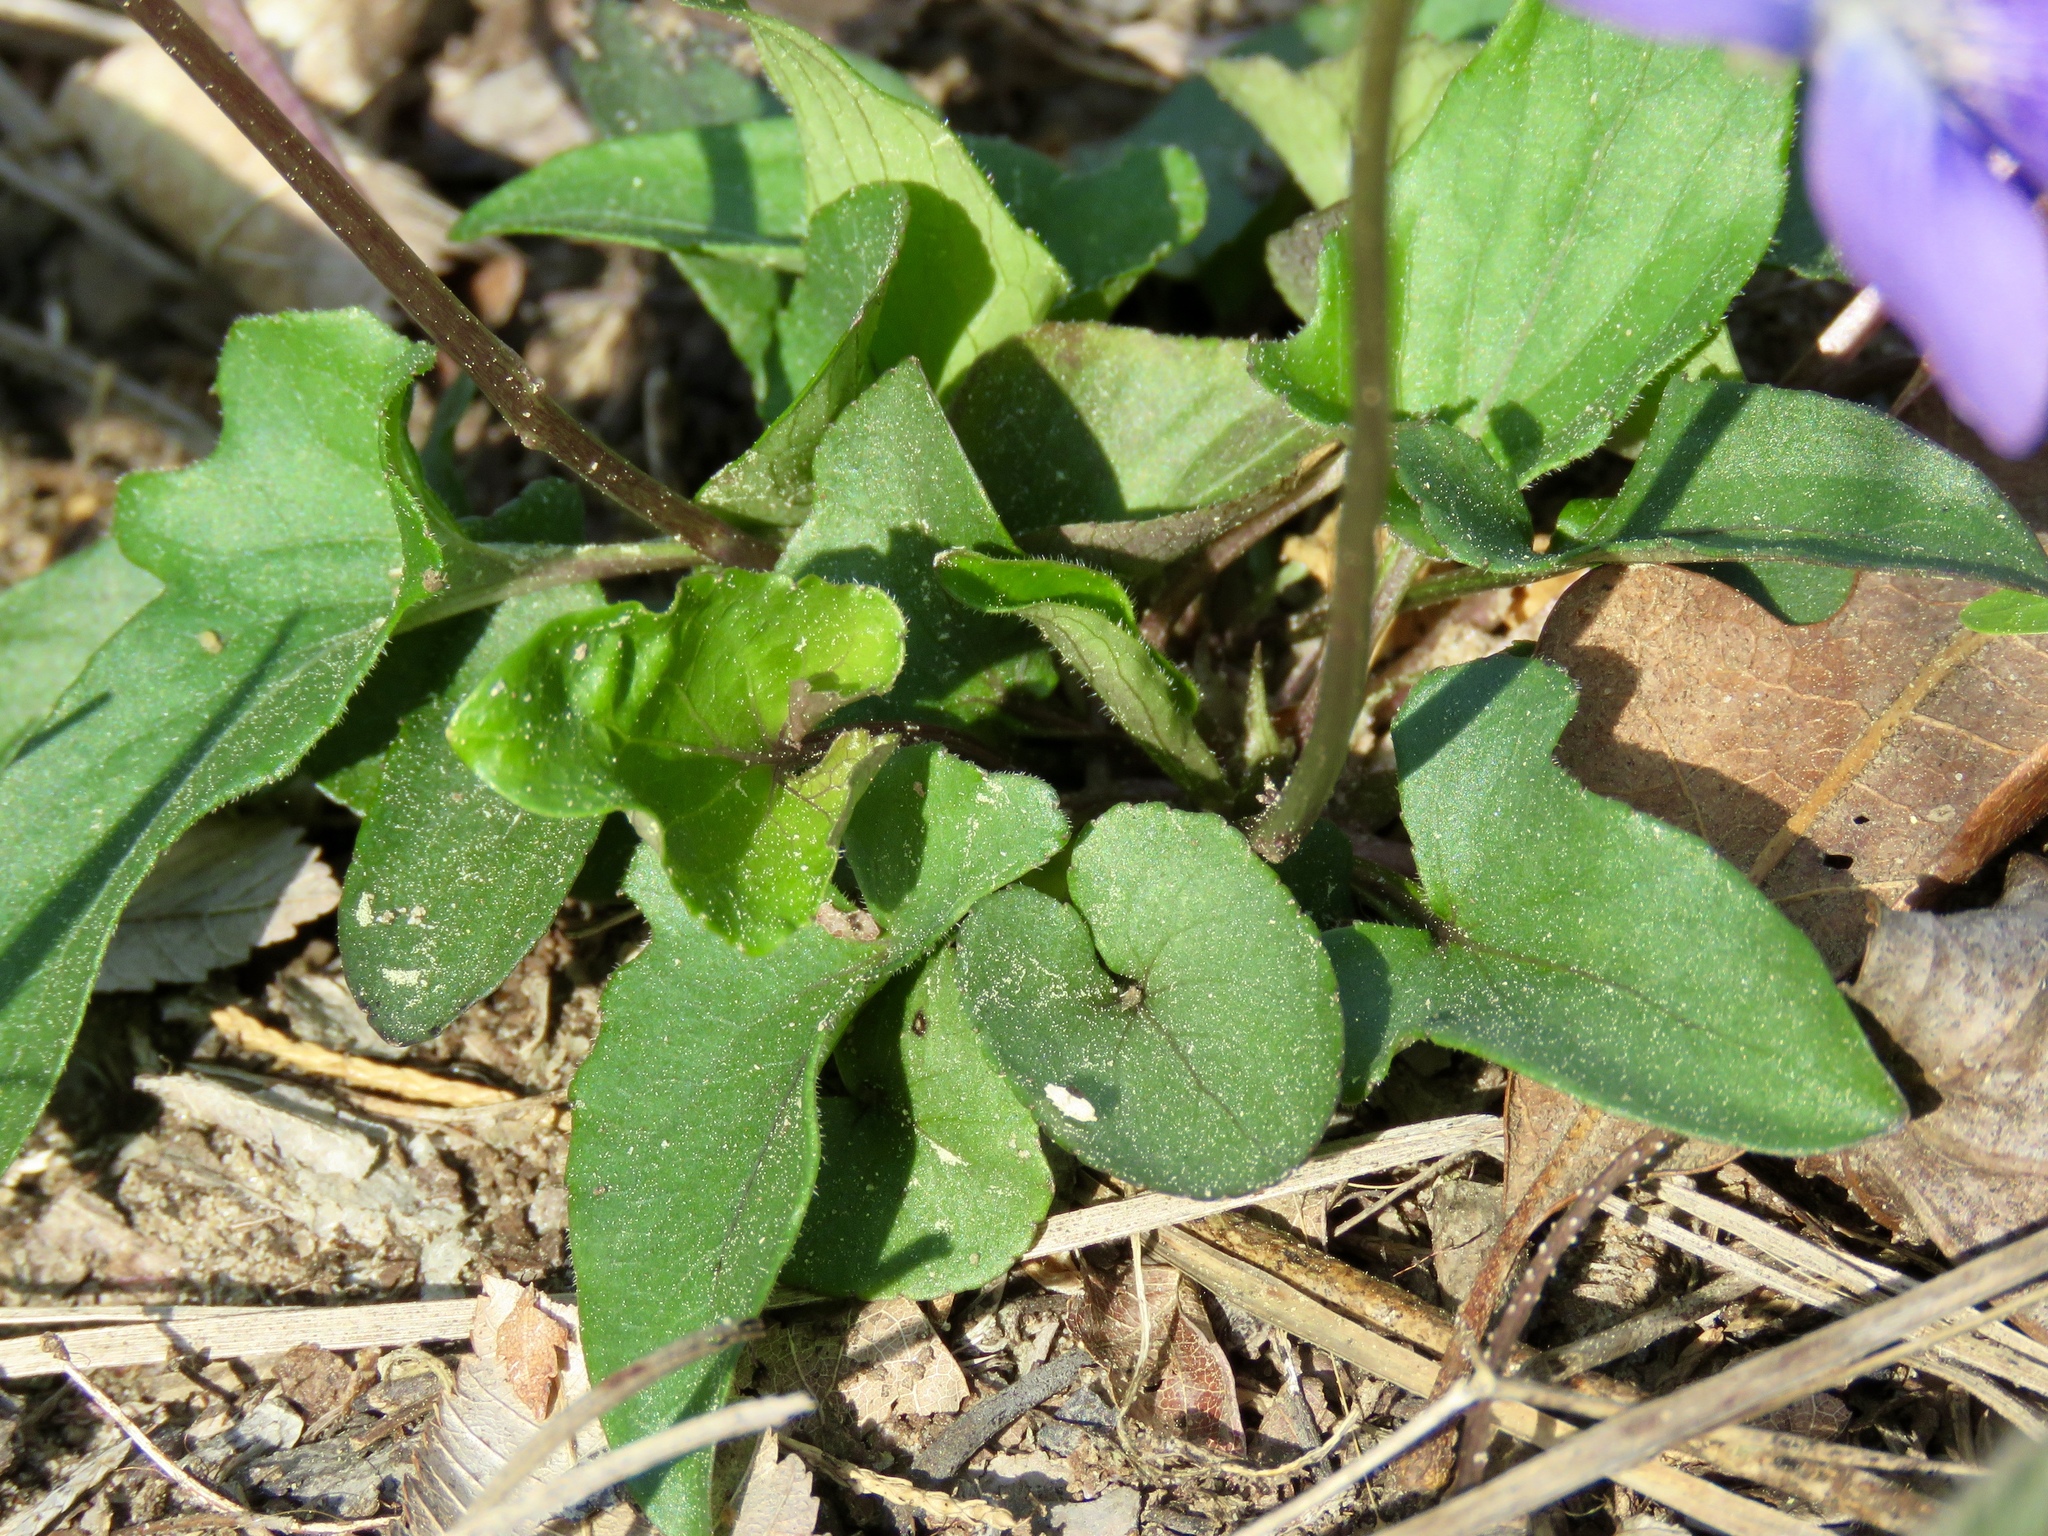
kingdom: Plantae
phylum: Tracheophyta
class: Magnoliopsida
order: Malpighiales
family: Violaceae
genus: Viola
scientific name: Viola palmata
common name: Early blue violet
